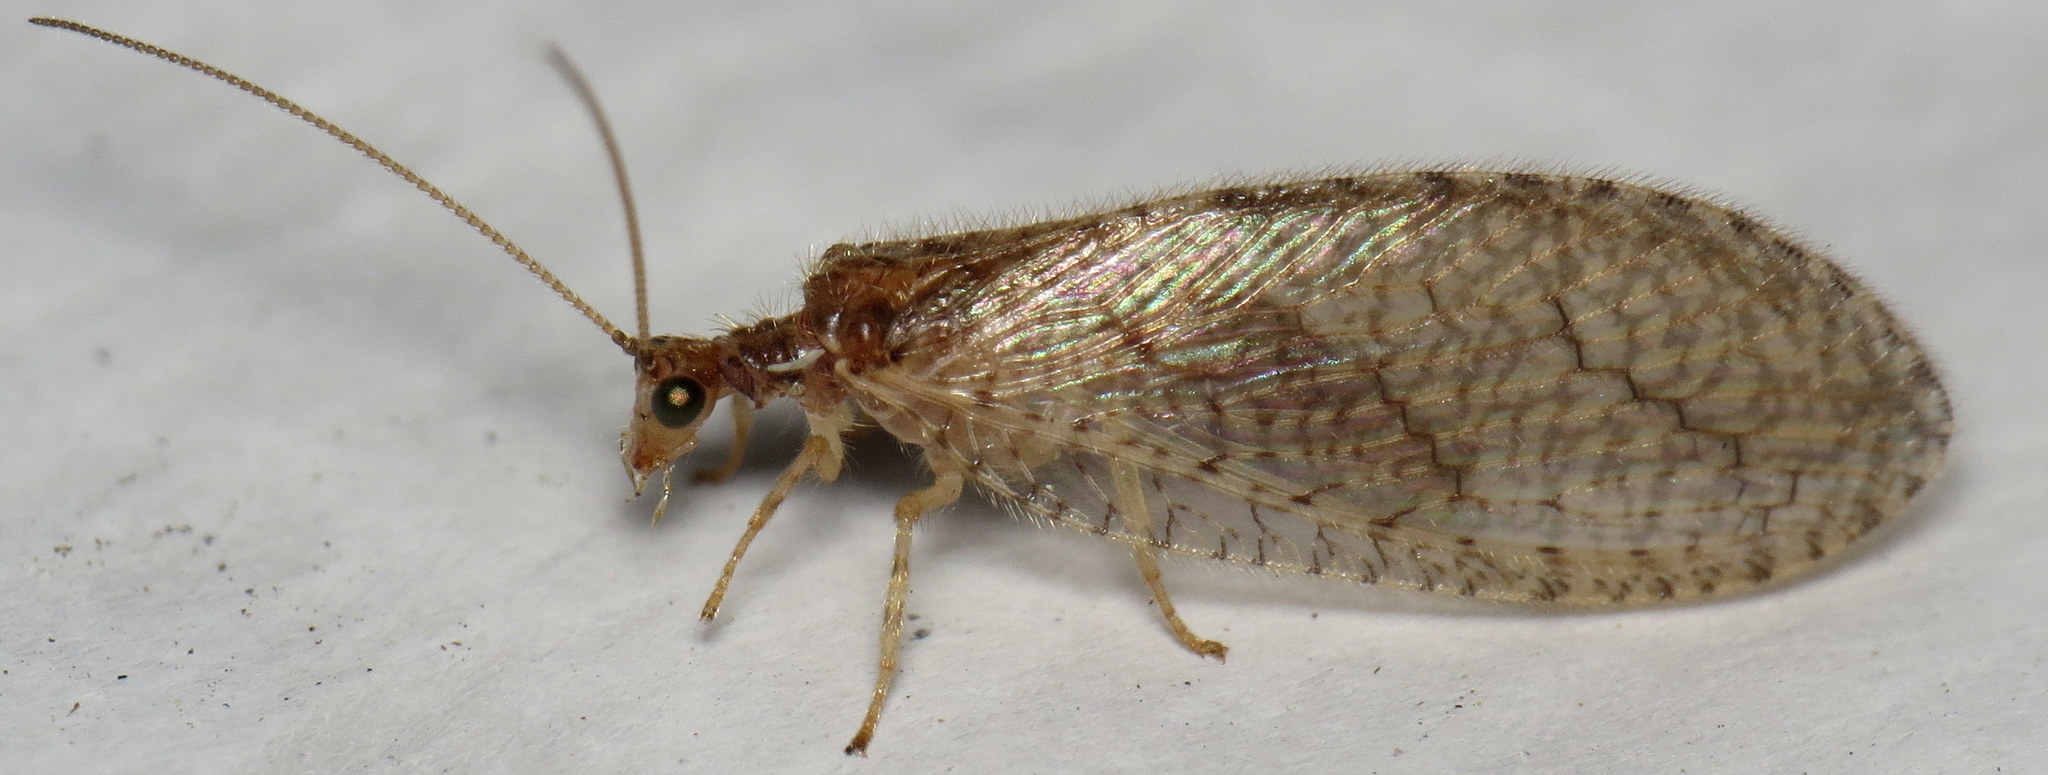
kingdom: Animalia
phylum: Arthropoda
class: Insecta
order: Neuroptera
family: Hemerobiidae
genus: Micromus
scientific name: Micromus posticus
